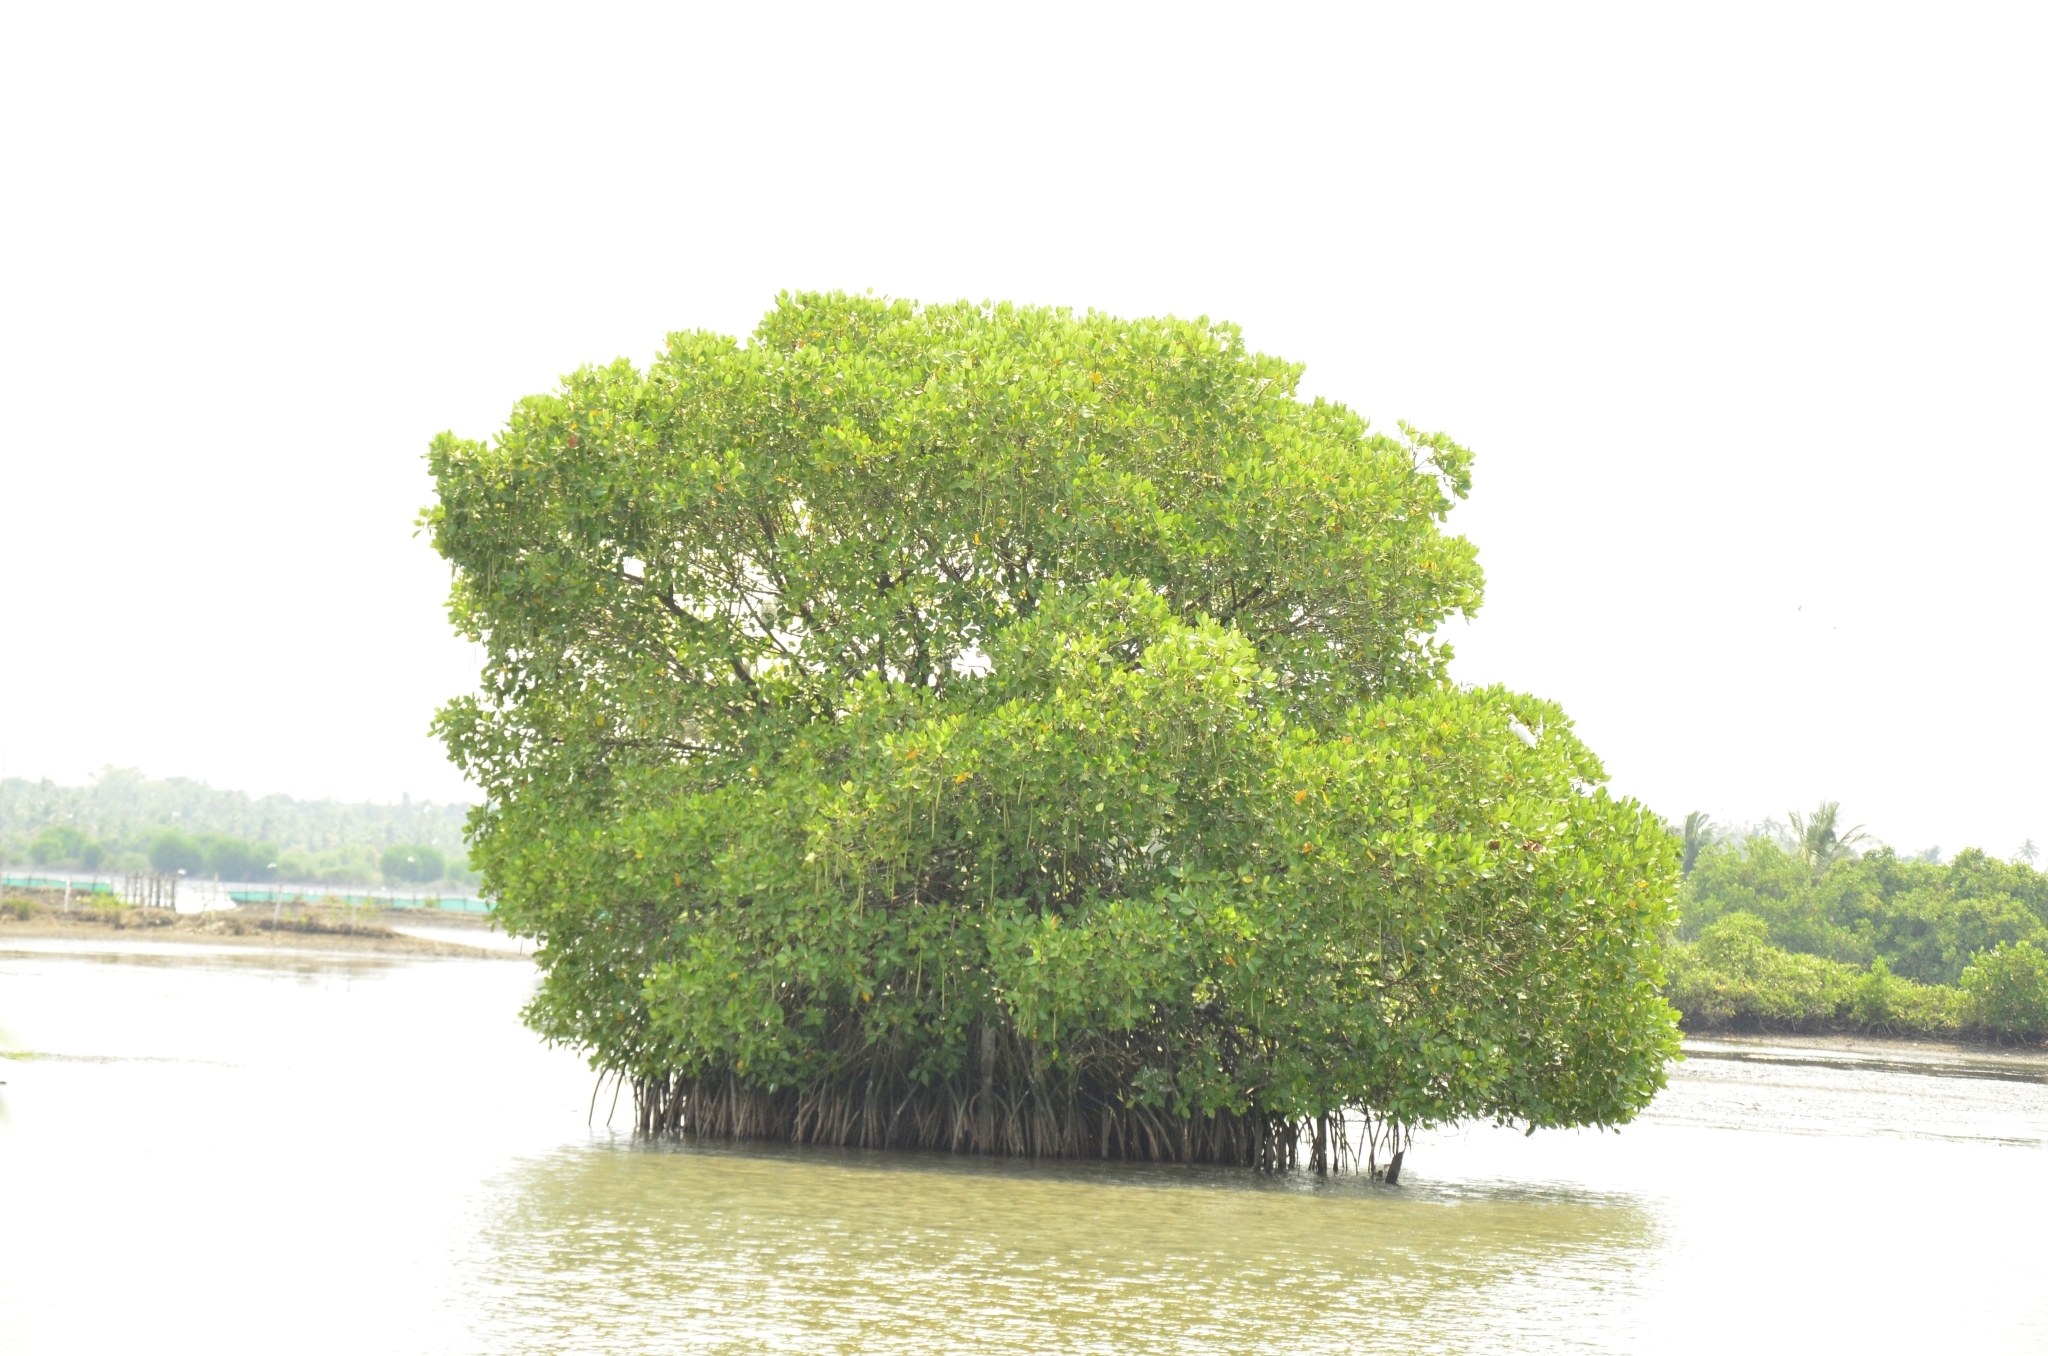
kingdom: Plantae
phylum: Tracheophyta
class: Magnoliopsida
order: Malpighiales
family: Rhizophoraceae
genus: Rhizophora
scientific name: Rhizophora mangle
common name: Red mangrove
